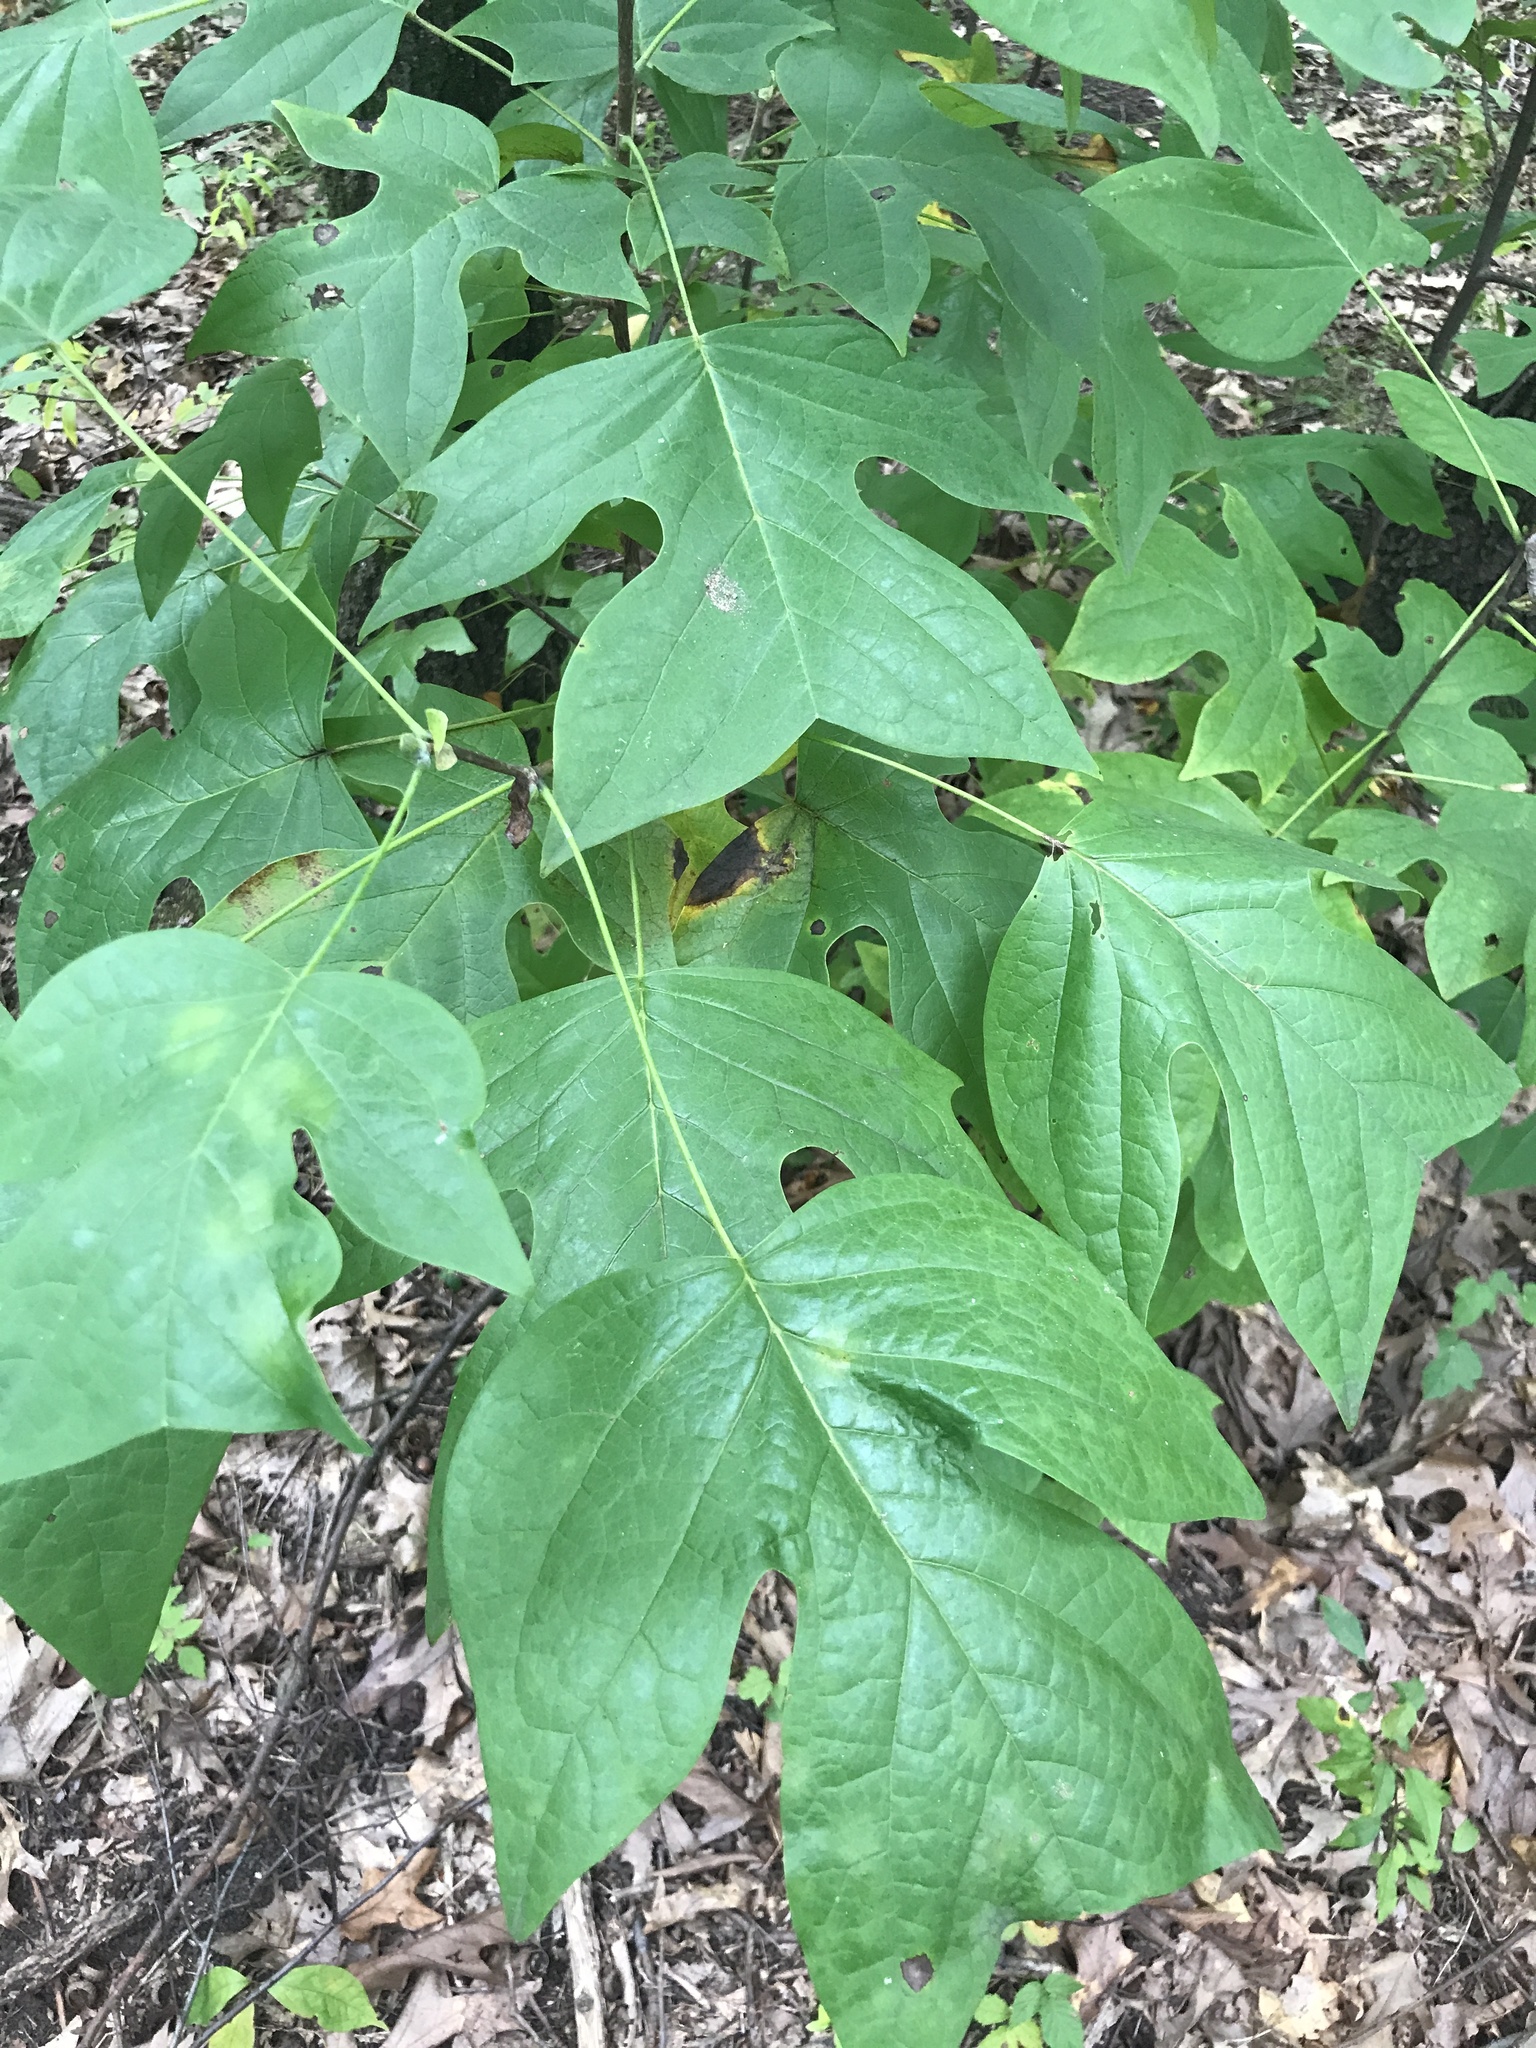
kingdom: Plantae
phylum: Tracheophyta
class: Magnoliopsida
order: Magnoliales
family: Magnoliaceae
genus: Liriodendron
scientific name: Liriodendron tulipifera
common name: Tulip tree
